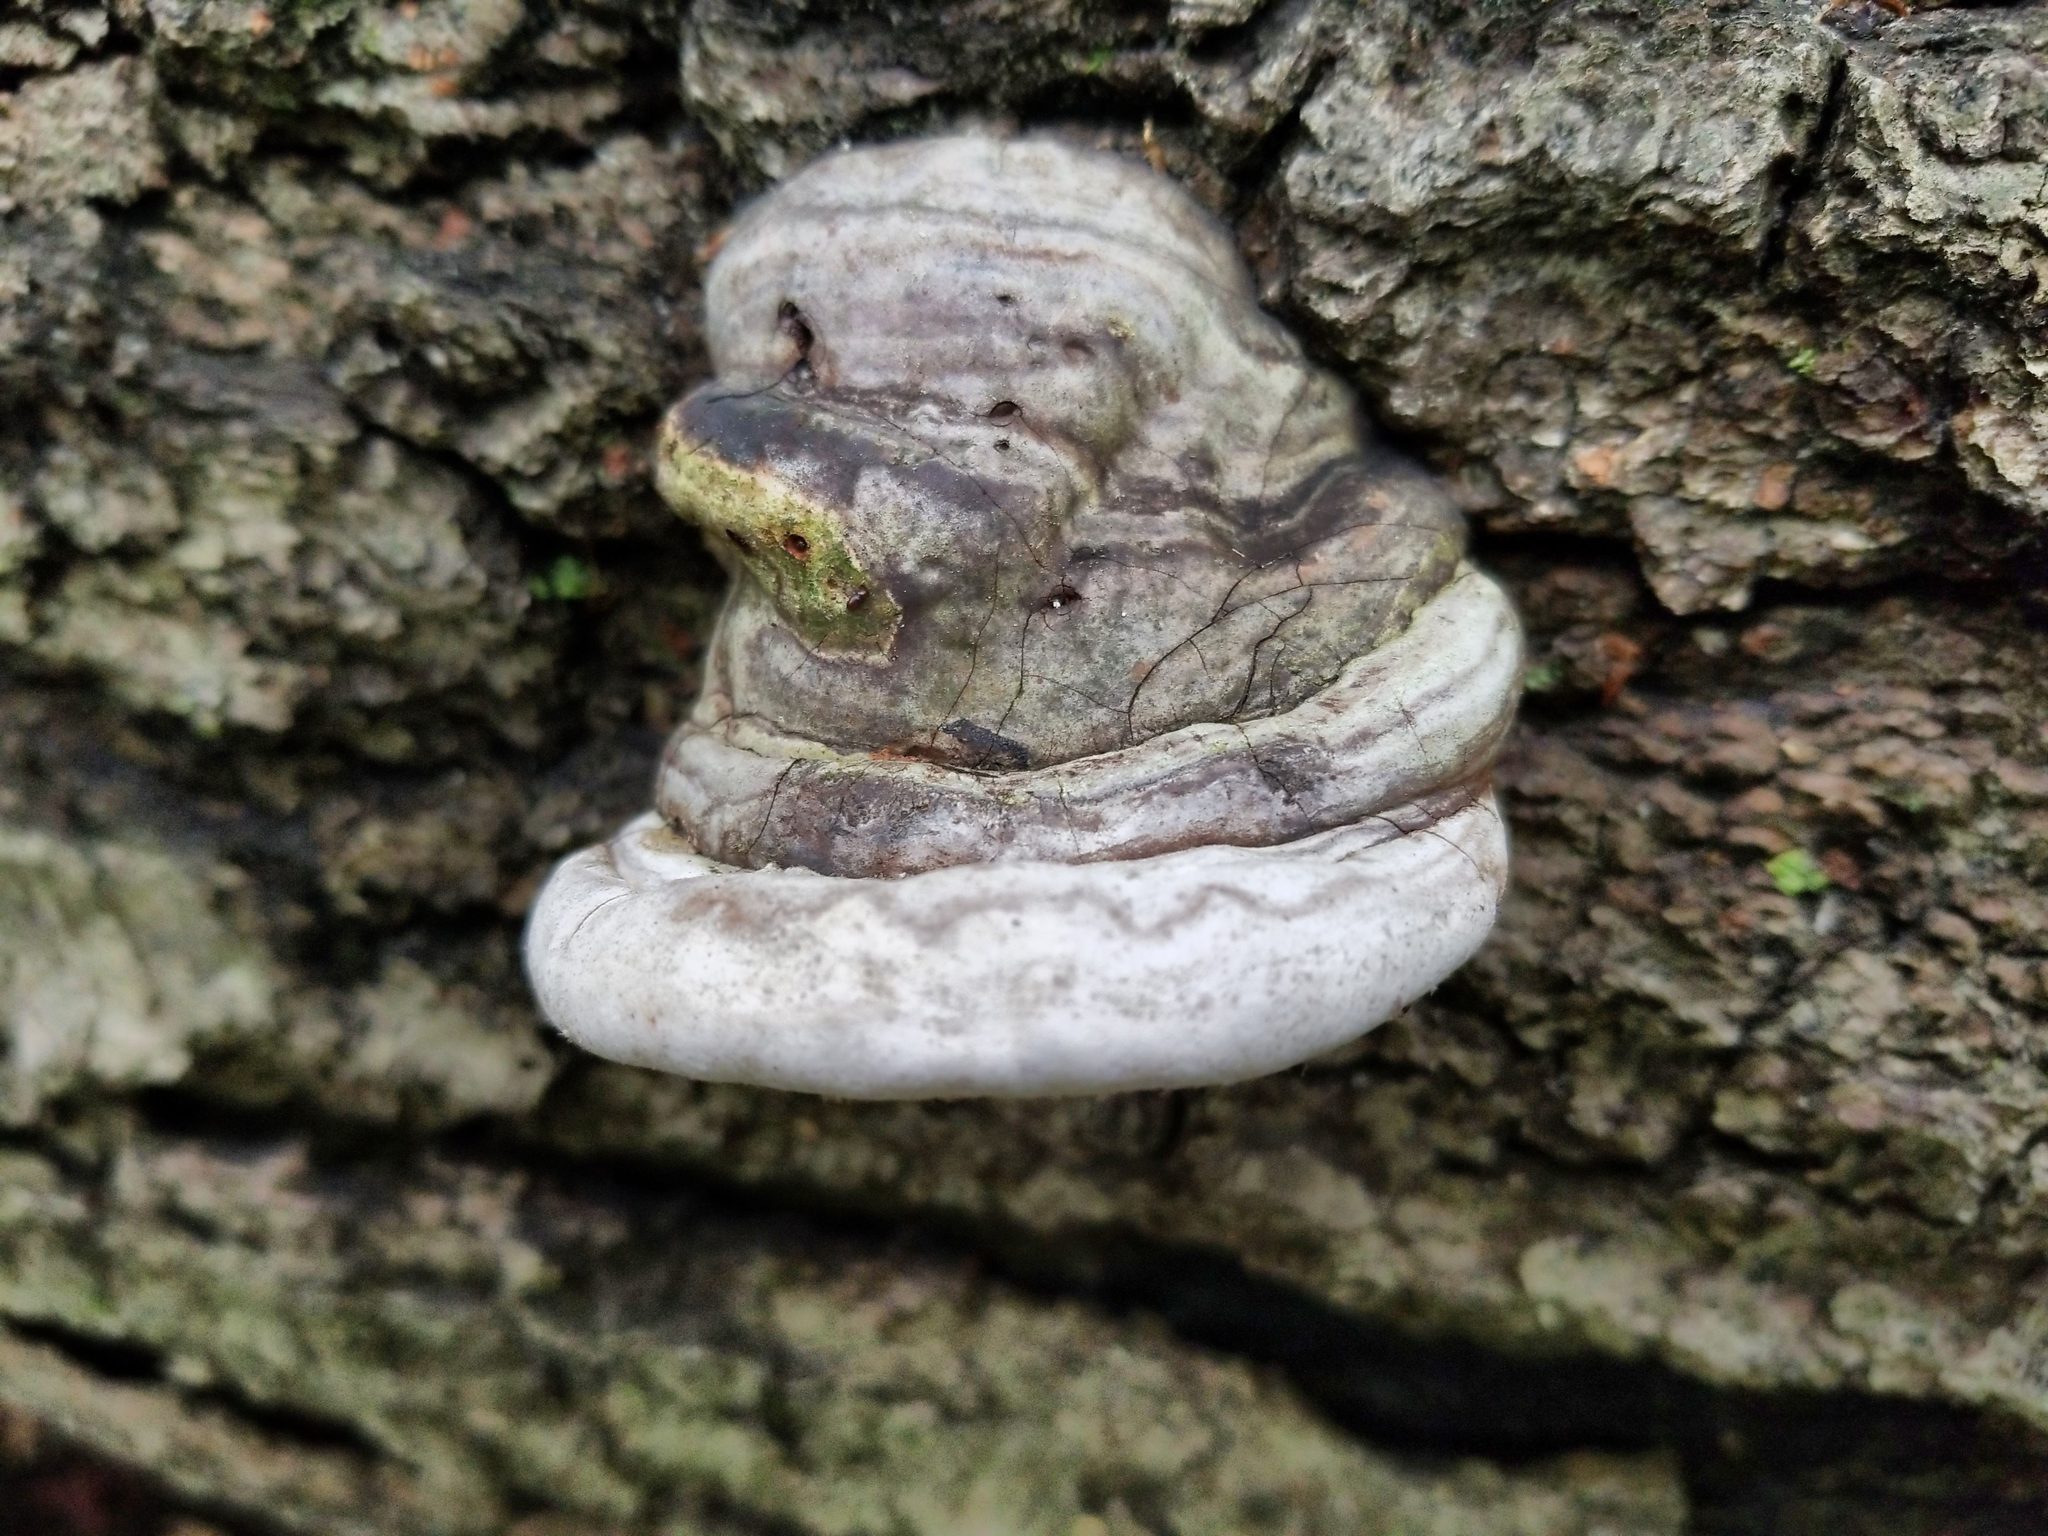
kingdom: Fungi
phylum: Basidiomycota
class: Agaricomycetes
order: Polyporales
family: Polyporaceae
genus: Fomes
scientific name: Fomes fomentarius
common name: Hoof fungus
